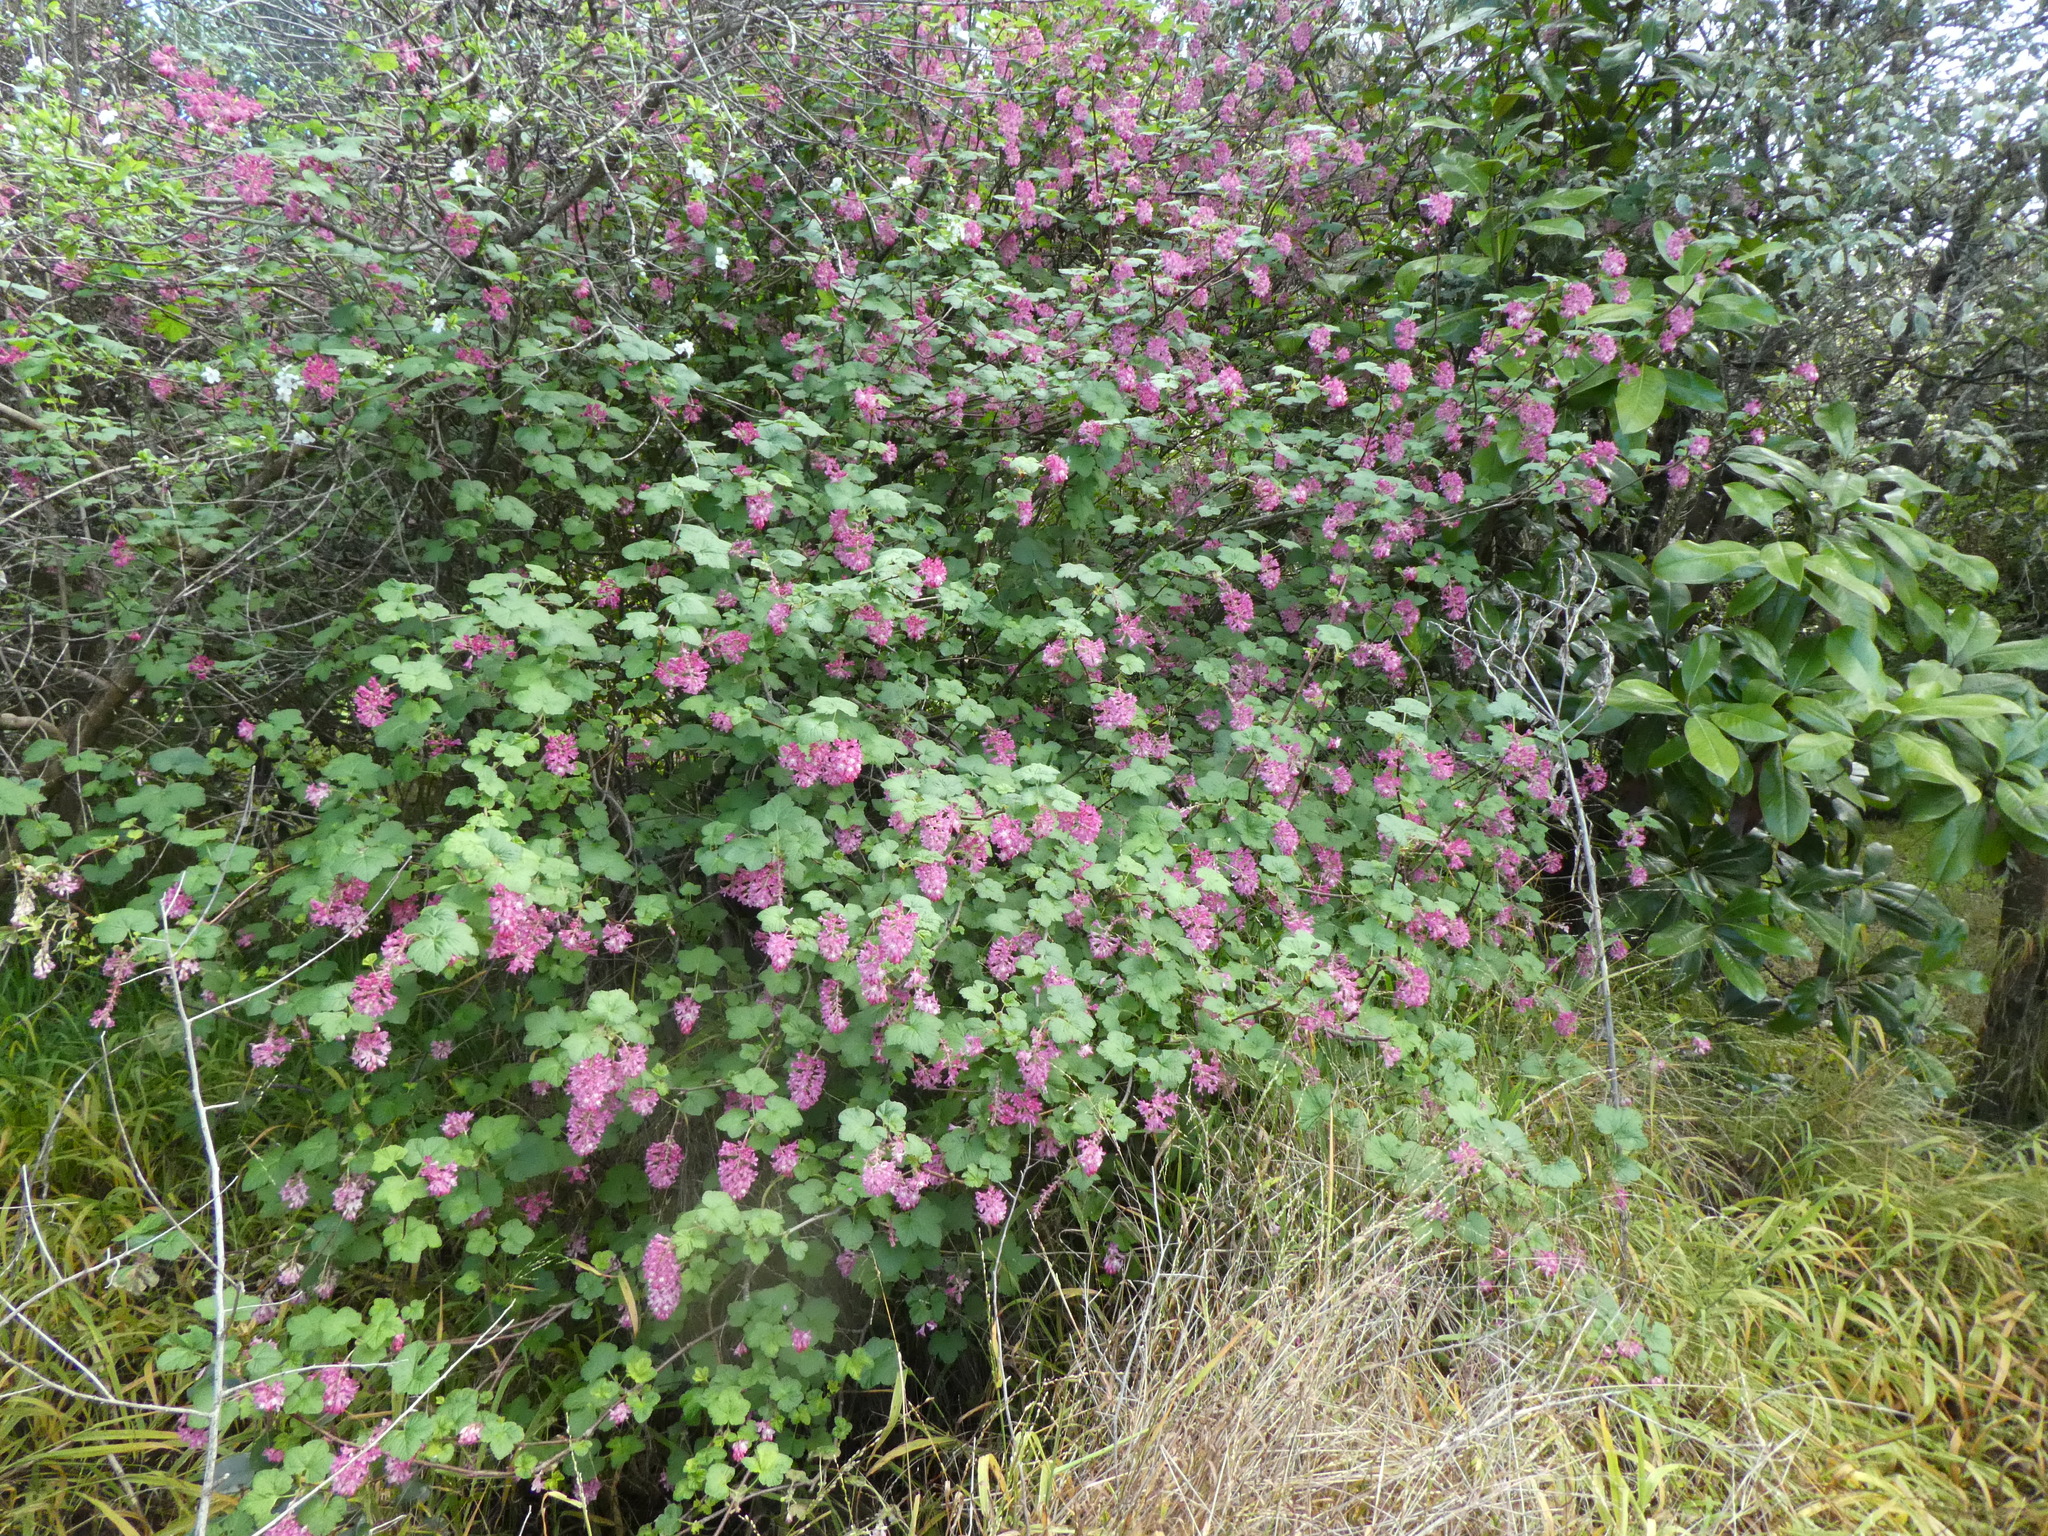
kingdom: Plantae
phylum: Tracheophyta
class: Magnoliopsida
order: Saxifragales
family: Grossulariaceae
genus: Ribes
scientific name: Ribes sanguineum
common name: Flowering currant
